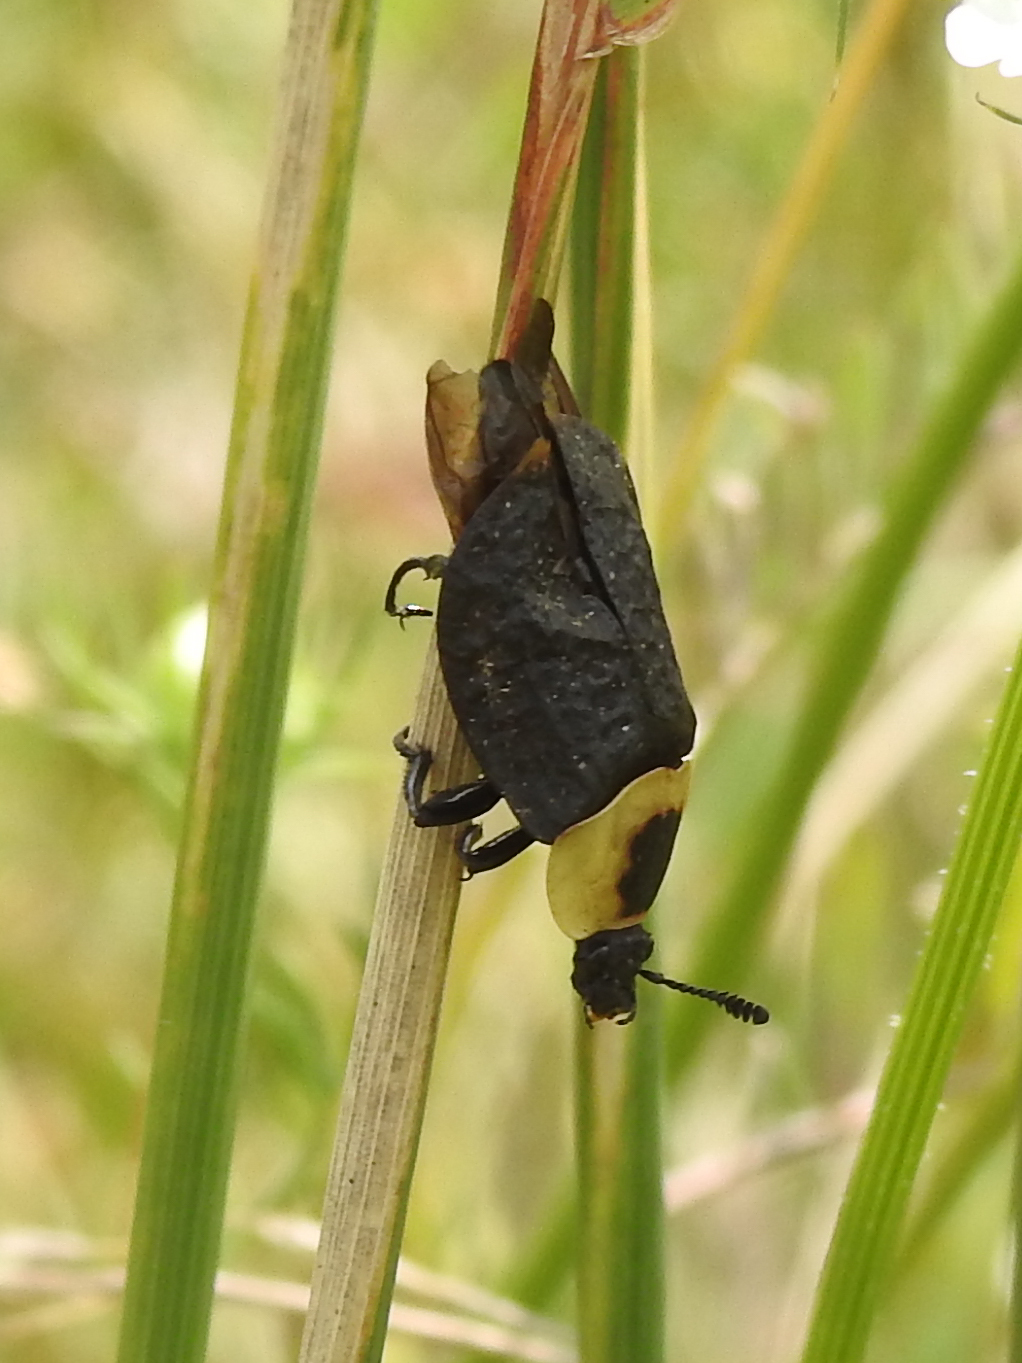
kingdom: Animalia
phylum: Arthropoda
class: Insecta
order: Coleoptera
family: Staphylinidae
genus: Necrophila
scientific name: Necrophila americana
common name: American carrion beetle
